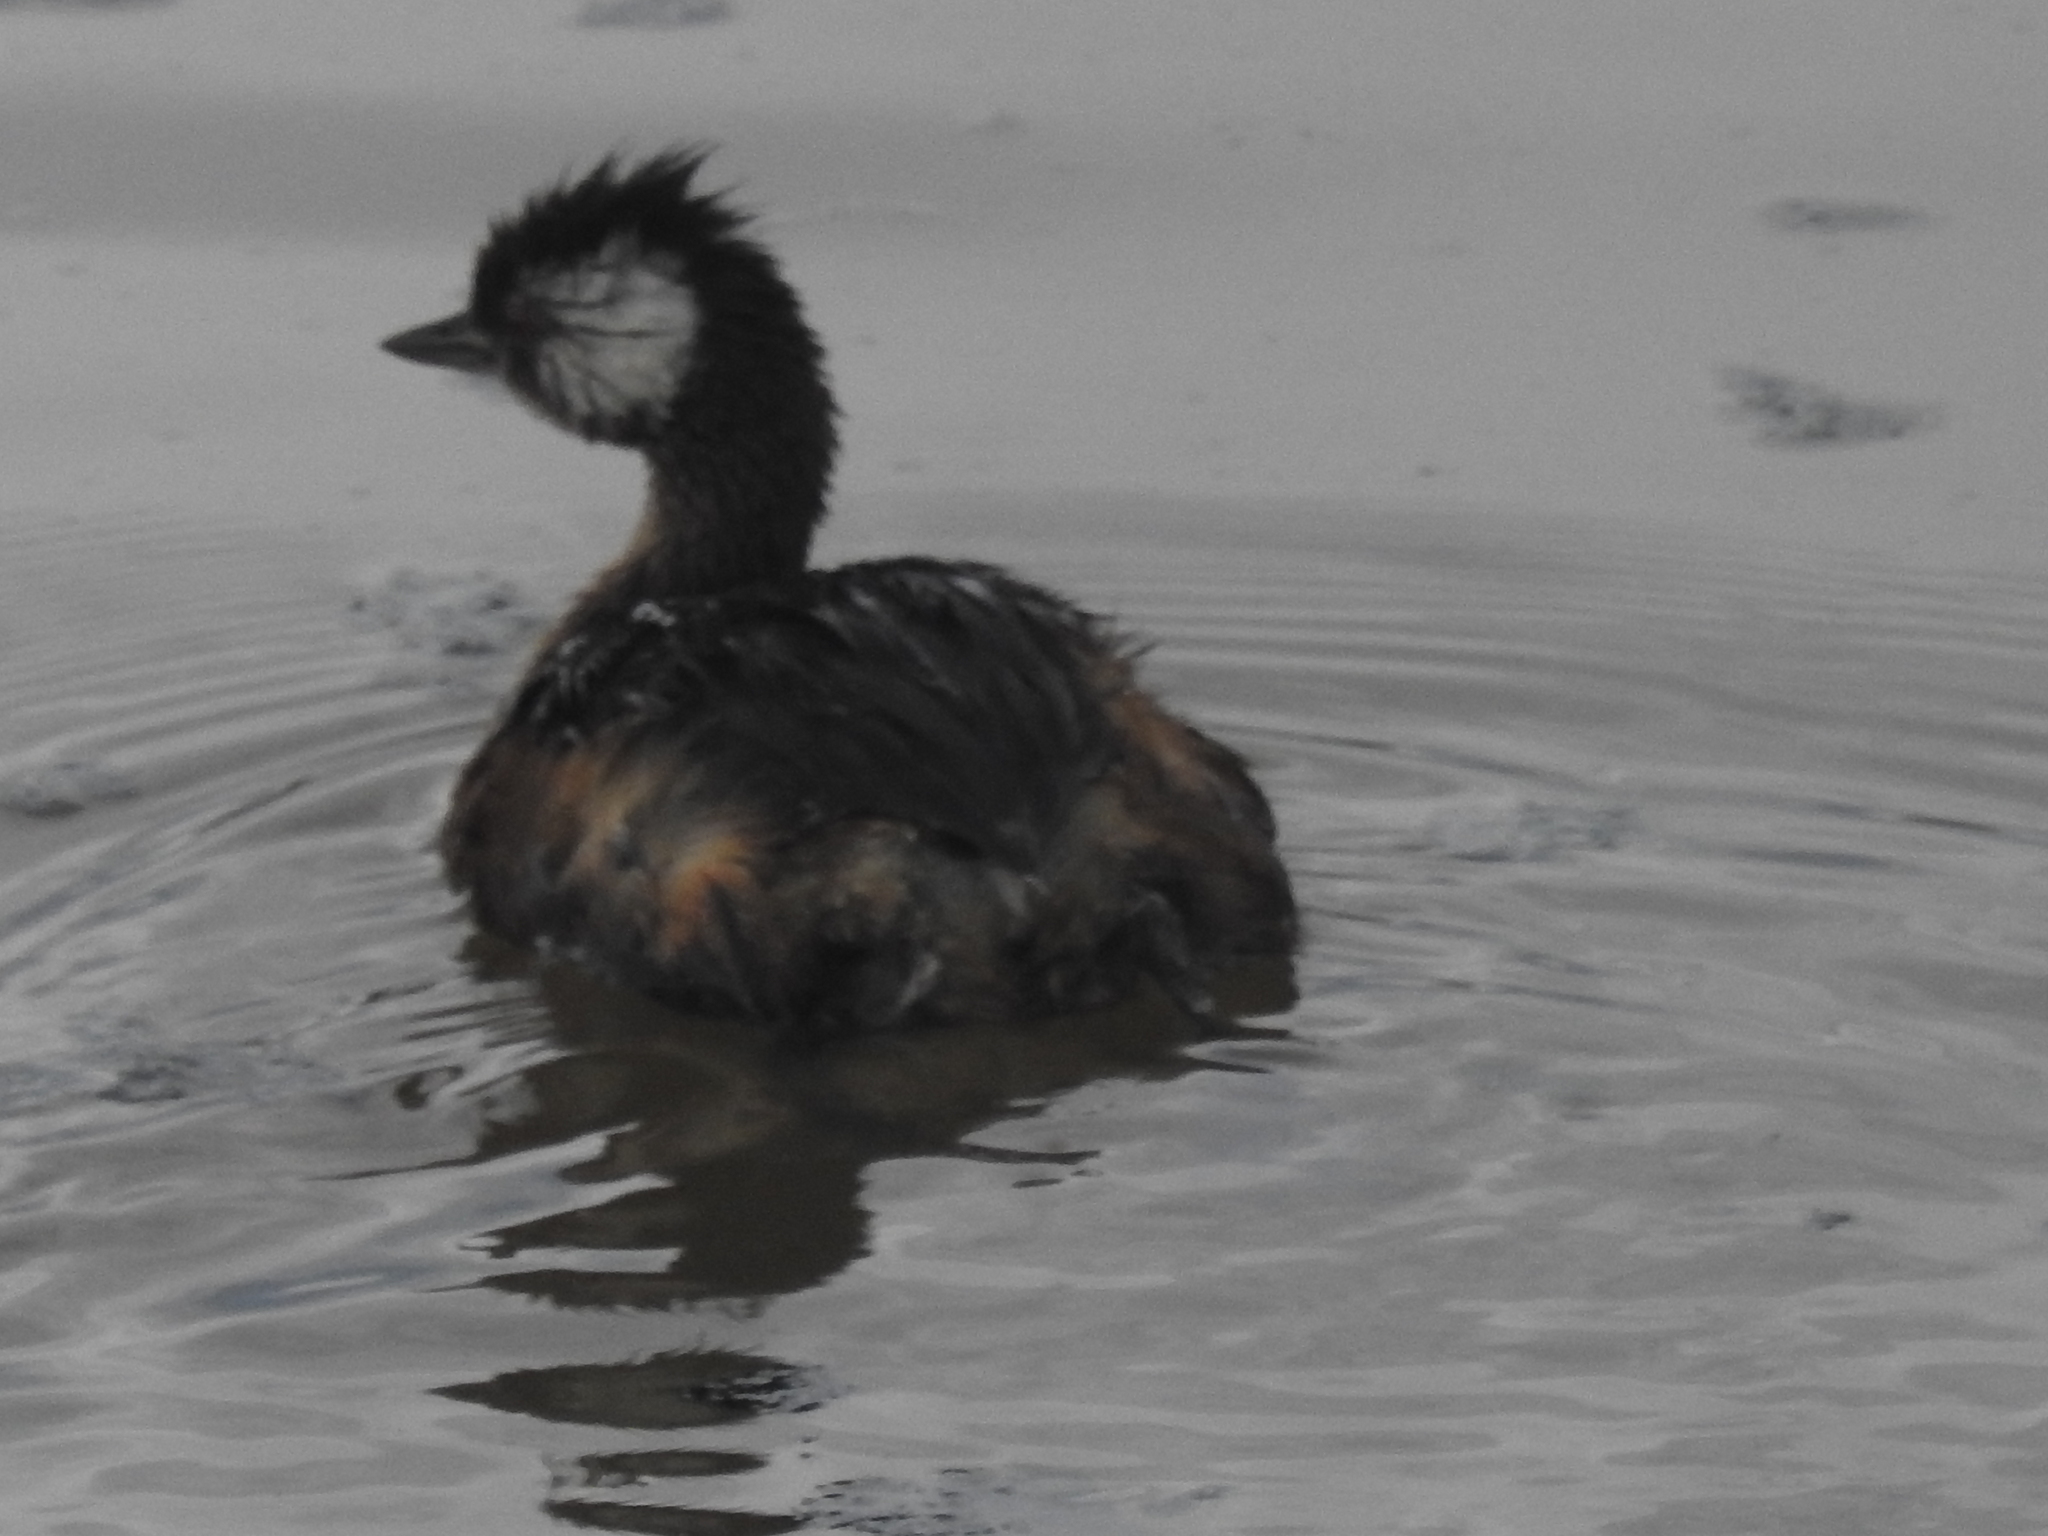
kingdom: Animalia
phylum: Chordata
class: Aves
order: Podicipediformes
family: Podicipedidae
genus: Rollandia
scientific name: Rollandia rolland
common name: White-tufted grebe
